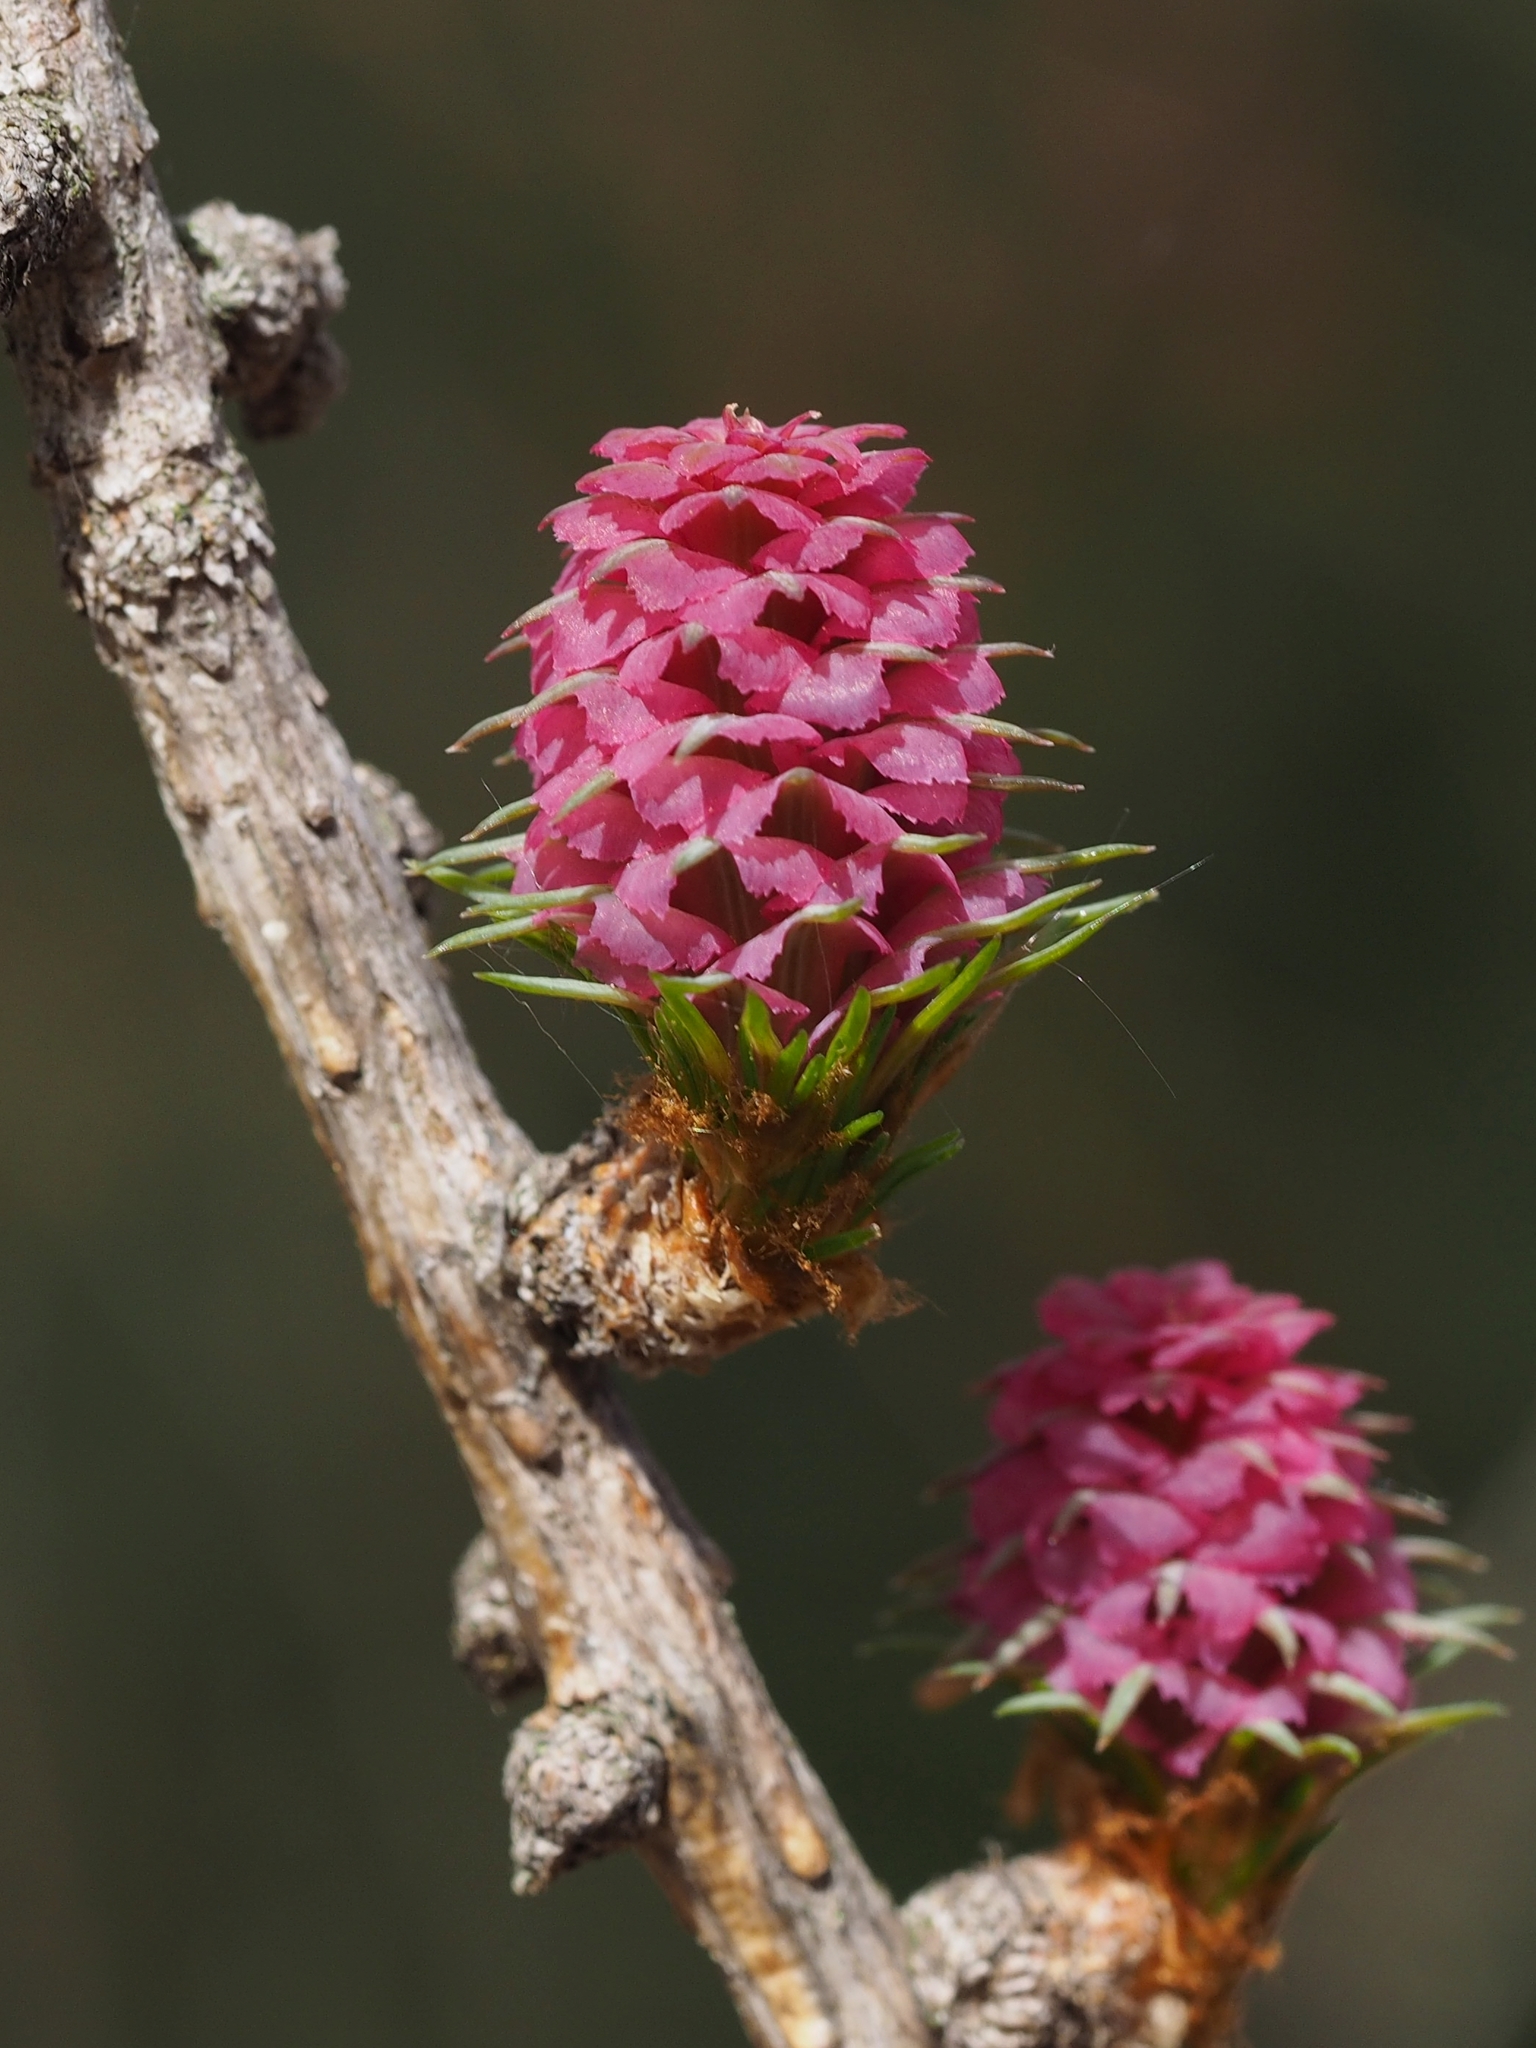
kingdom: Plantae
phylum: Tracheophyta
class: Pinopsida
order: Pinales
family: Pinaceae
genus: Larix
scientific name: Larix decidua
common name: European larch
